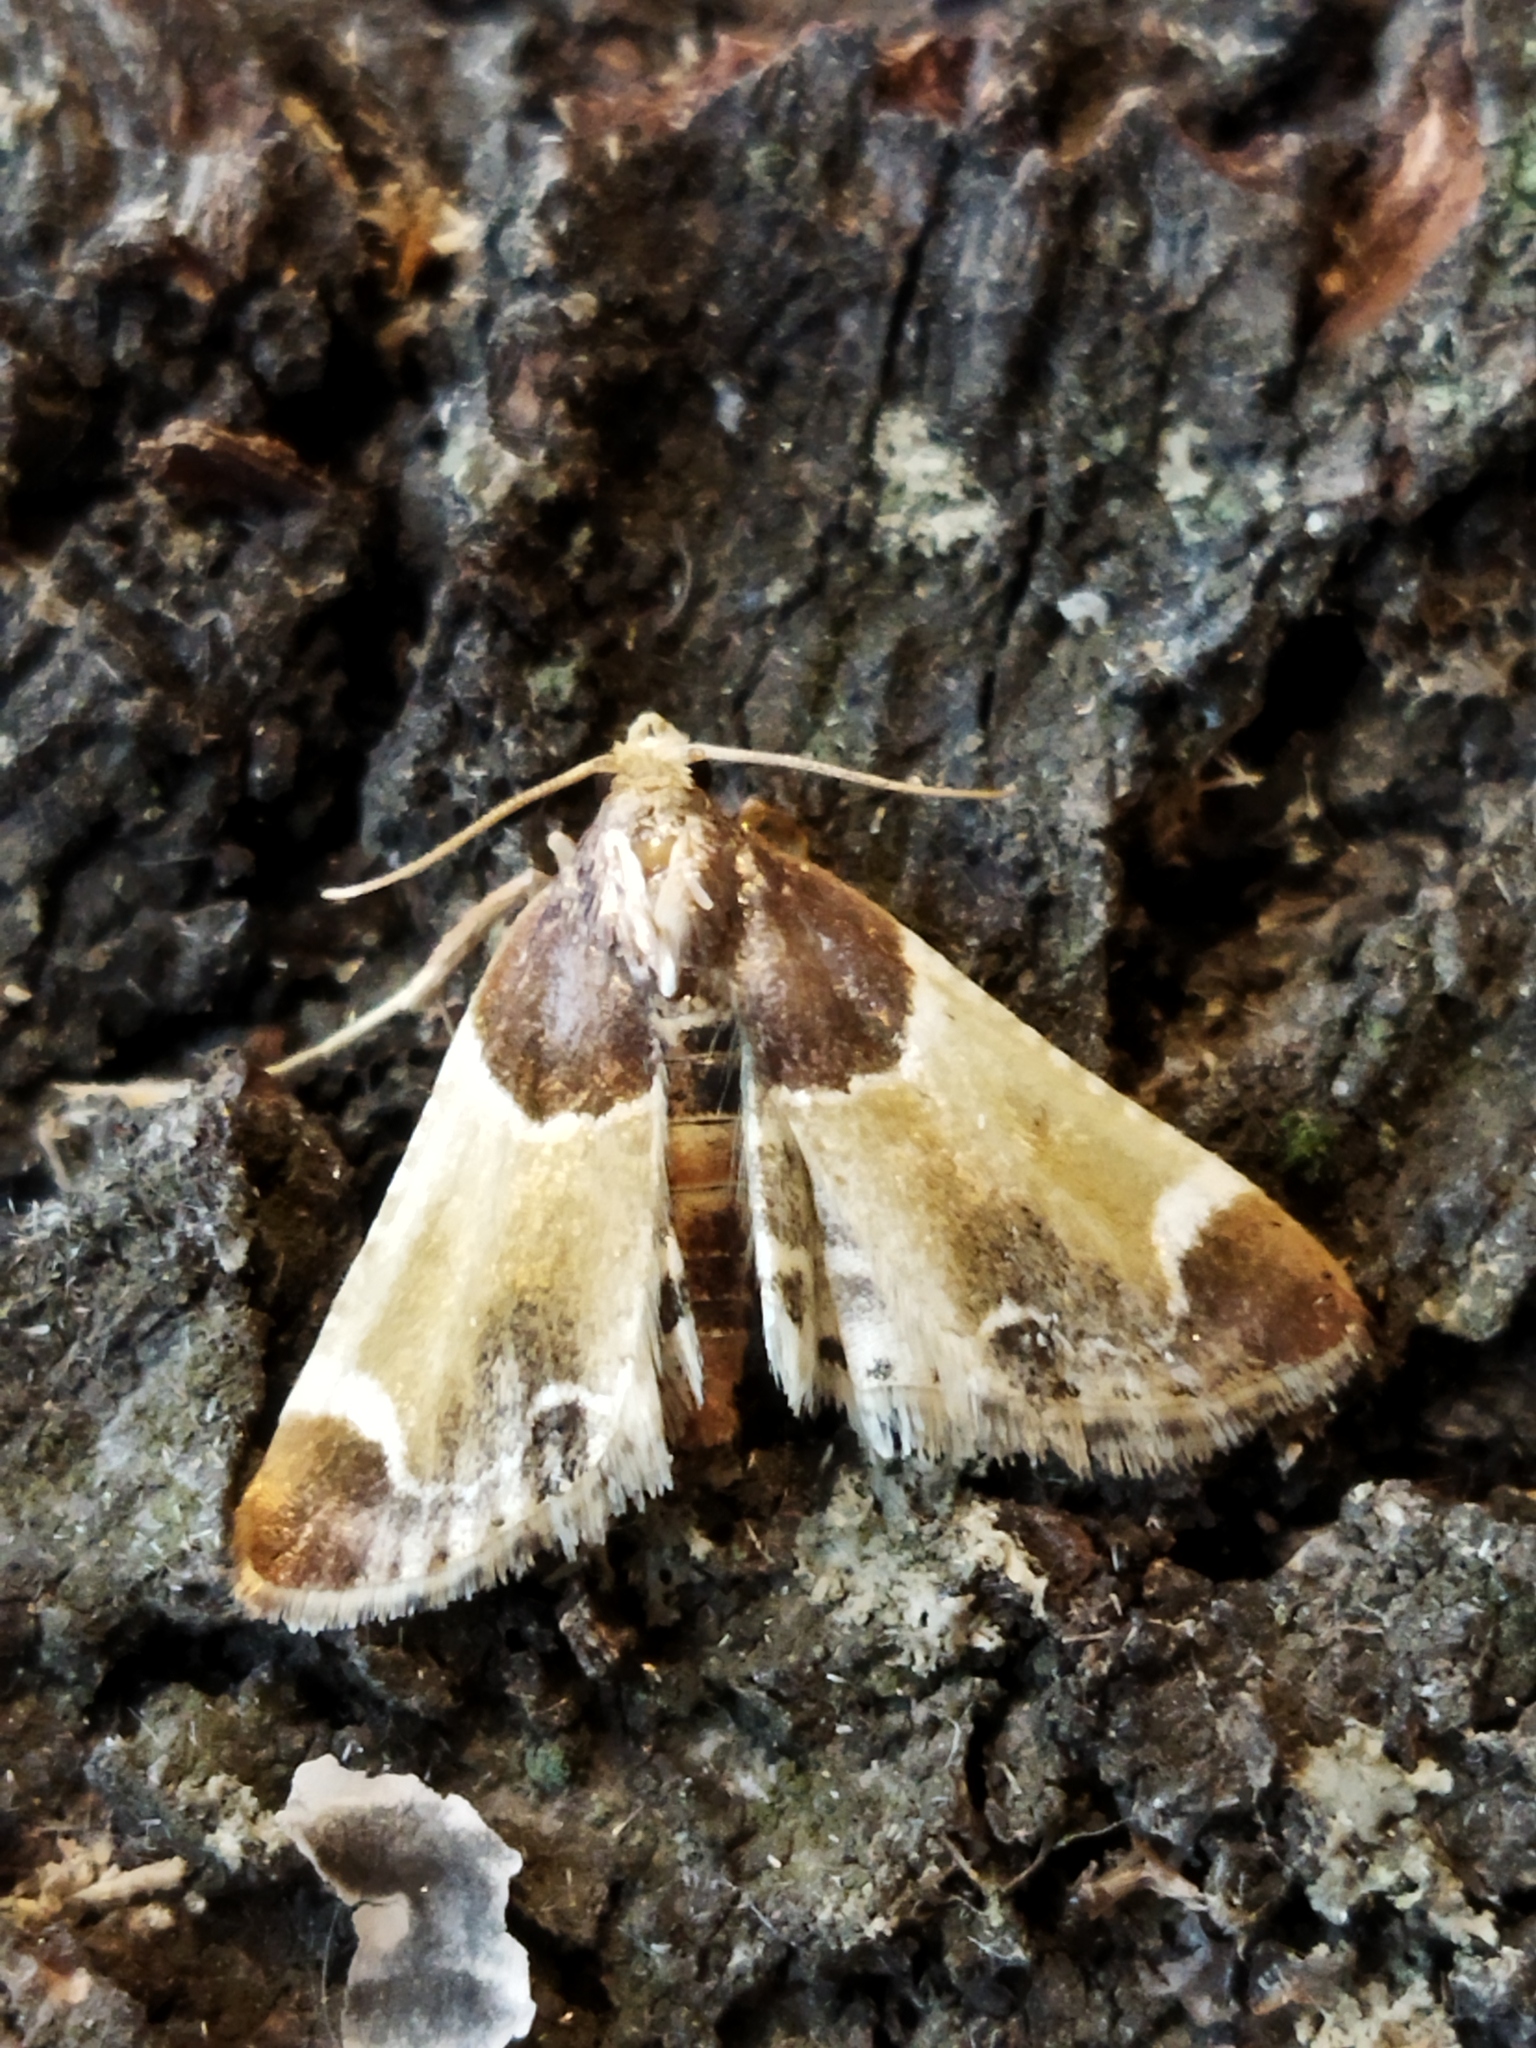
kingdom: Animalia
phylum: Arthropoda
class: Insecta
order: Lepidoptera
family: Pyralidae
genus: Pyralis
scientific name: Pyralis farinalis
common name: Meal moth
